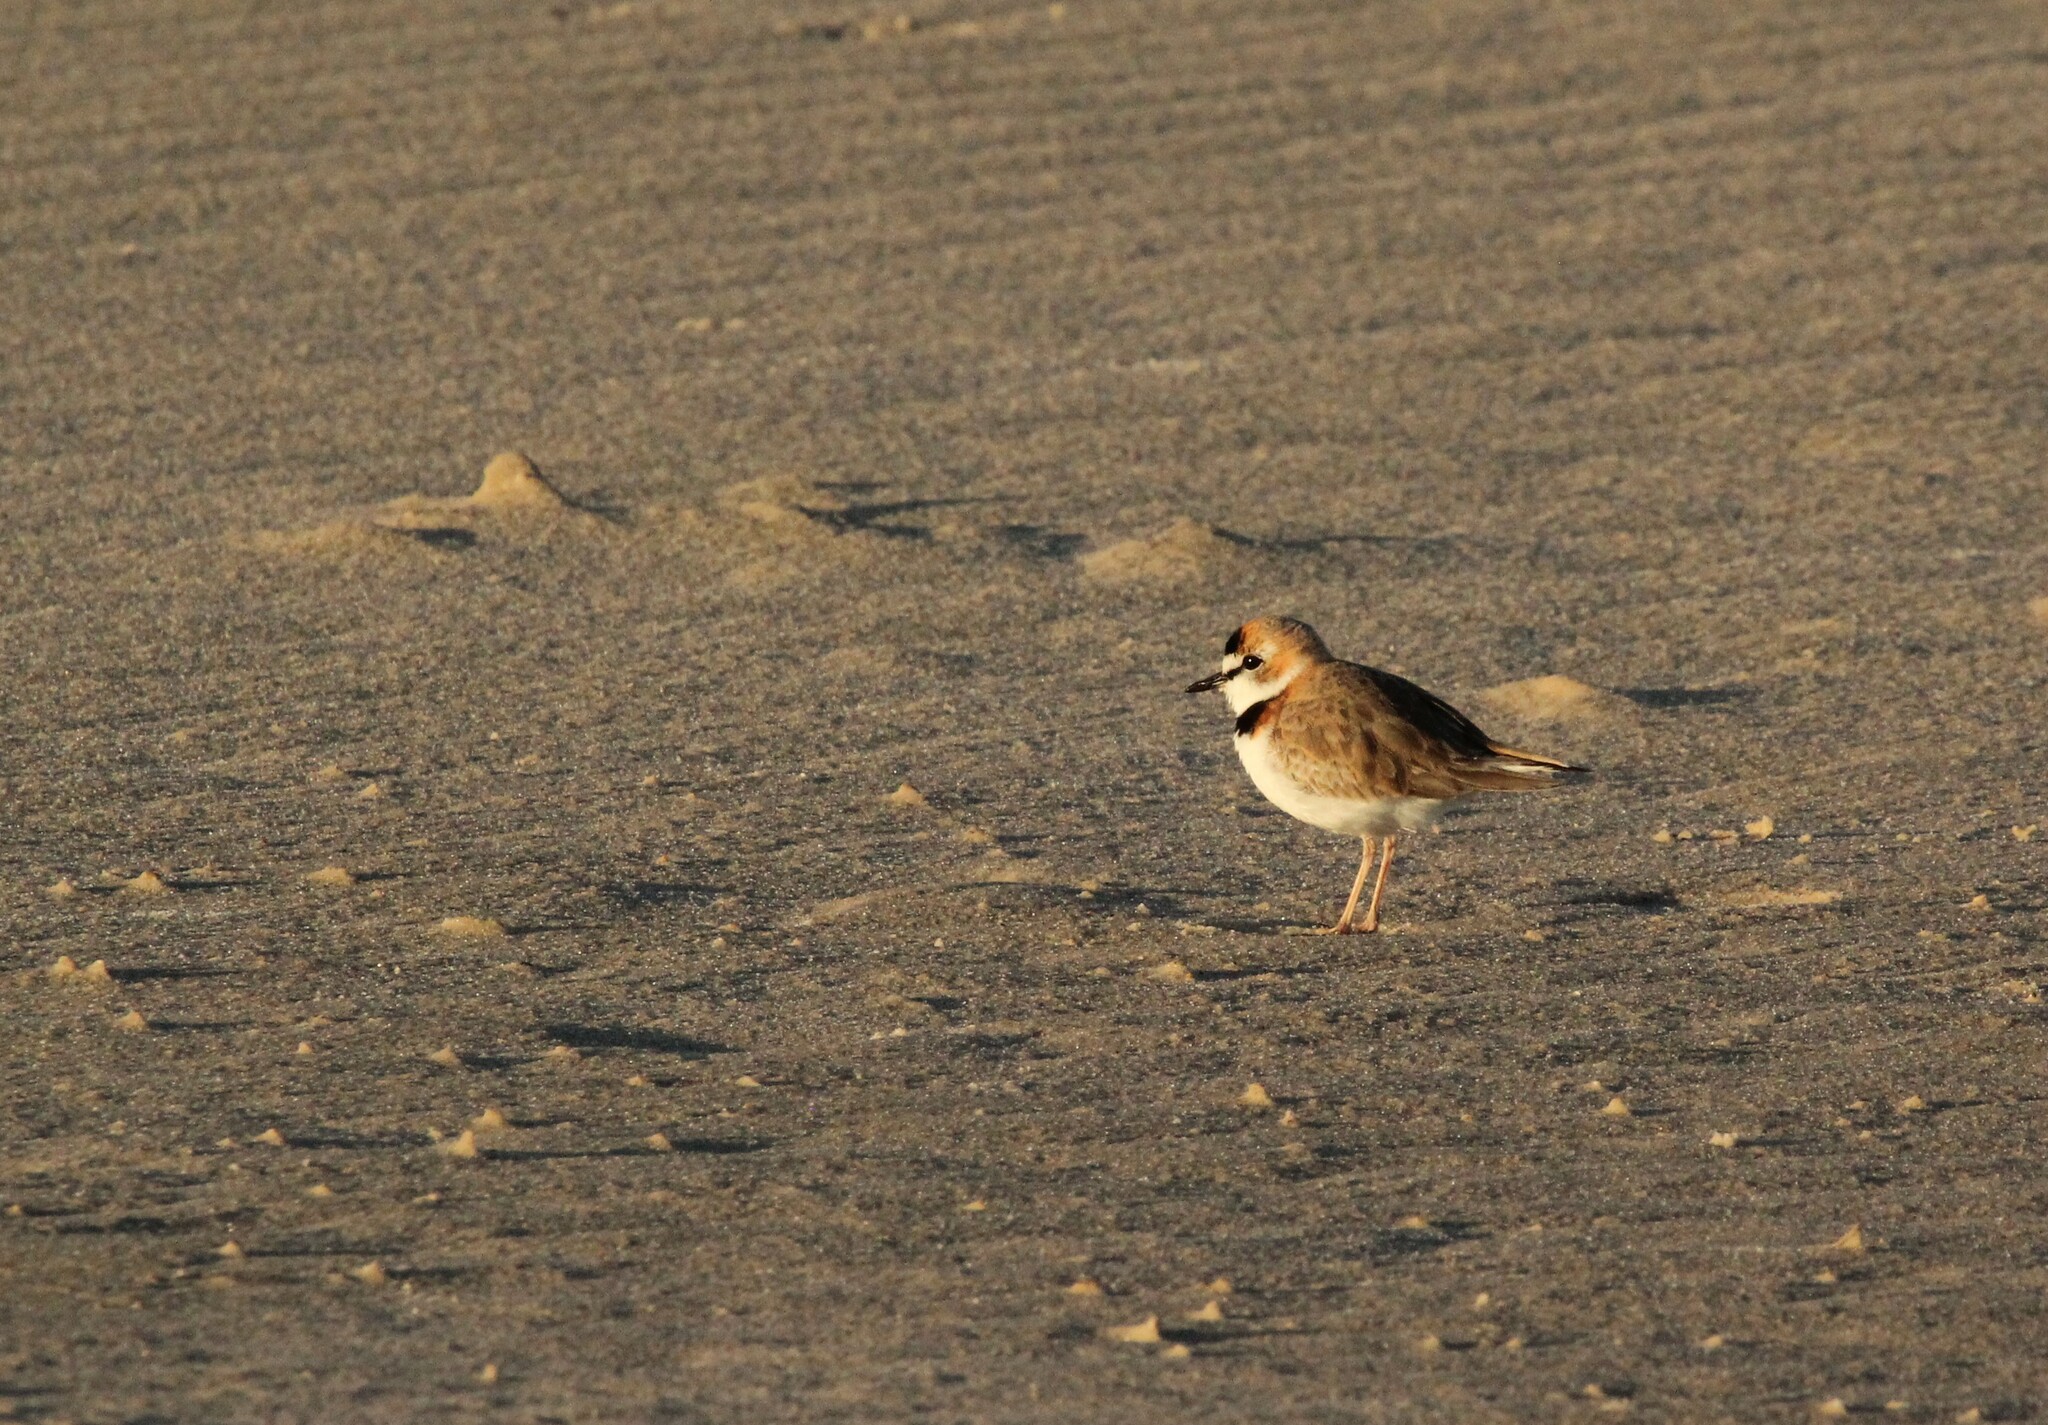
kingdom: Animalia
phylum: Chordata
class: Aves
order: Charadriiformes
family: Charadriidae
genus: Anarhynchus
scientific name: Anarhynchus
